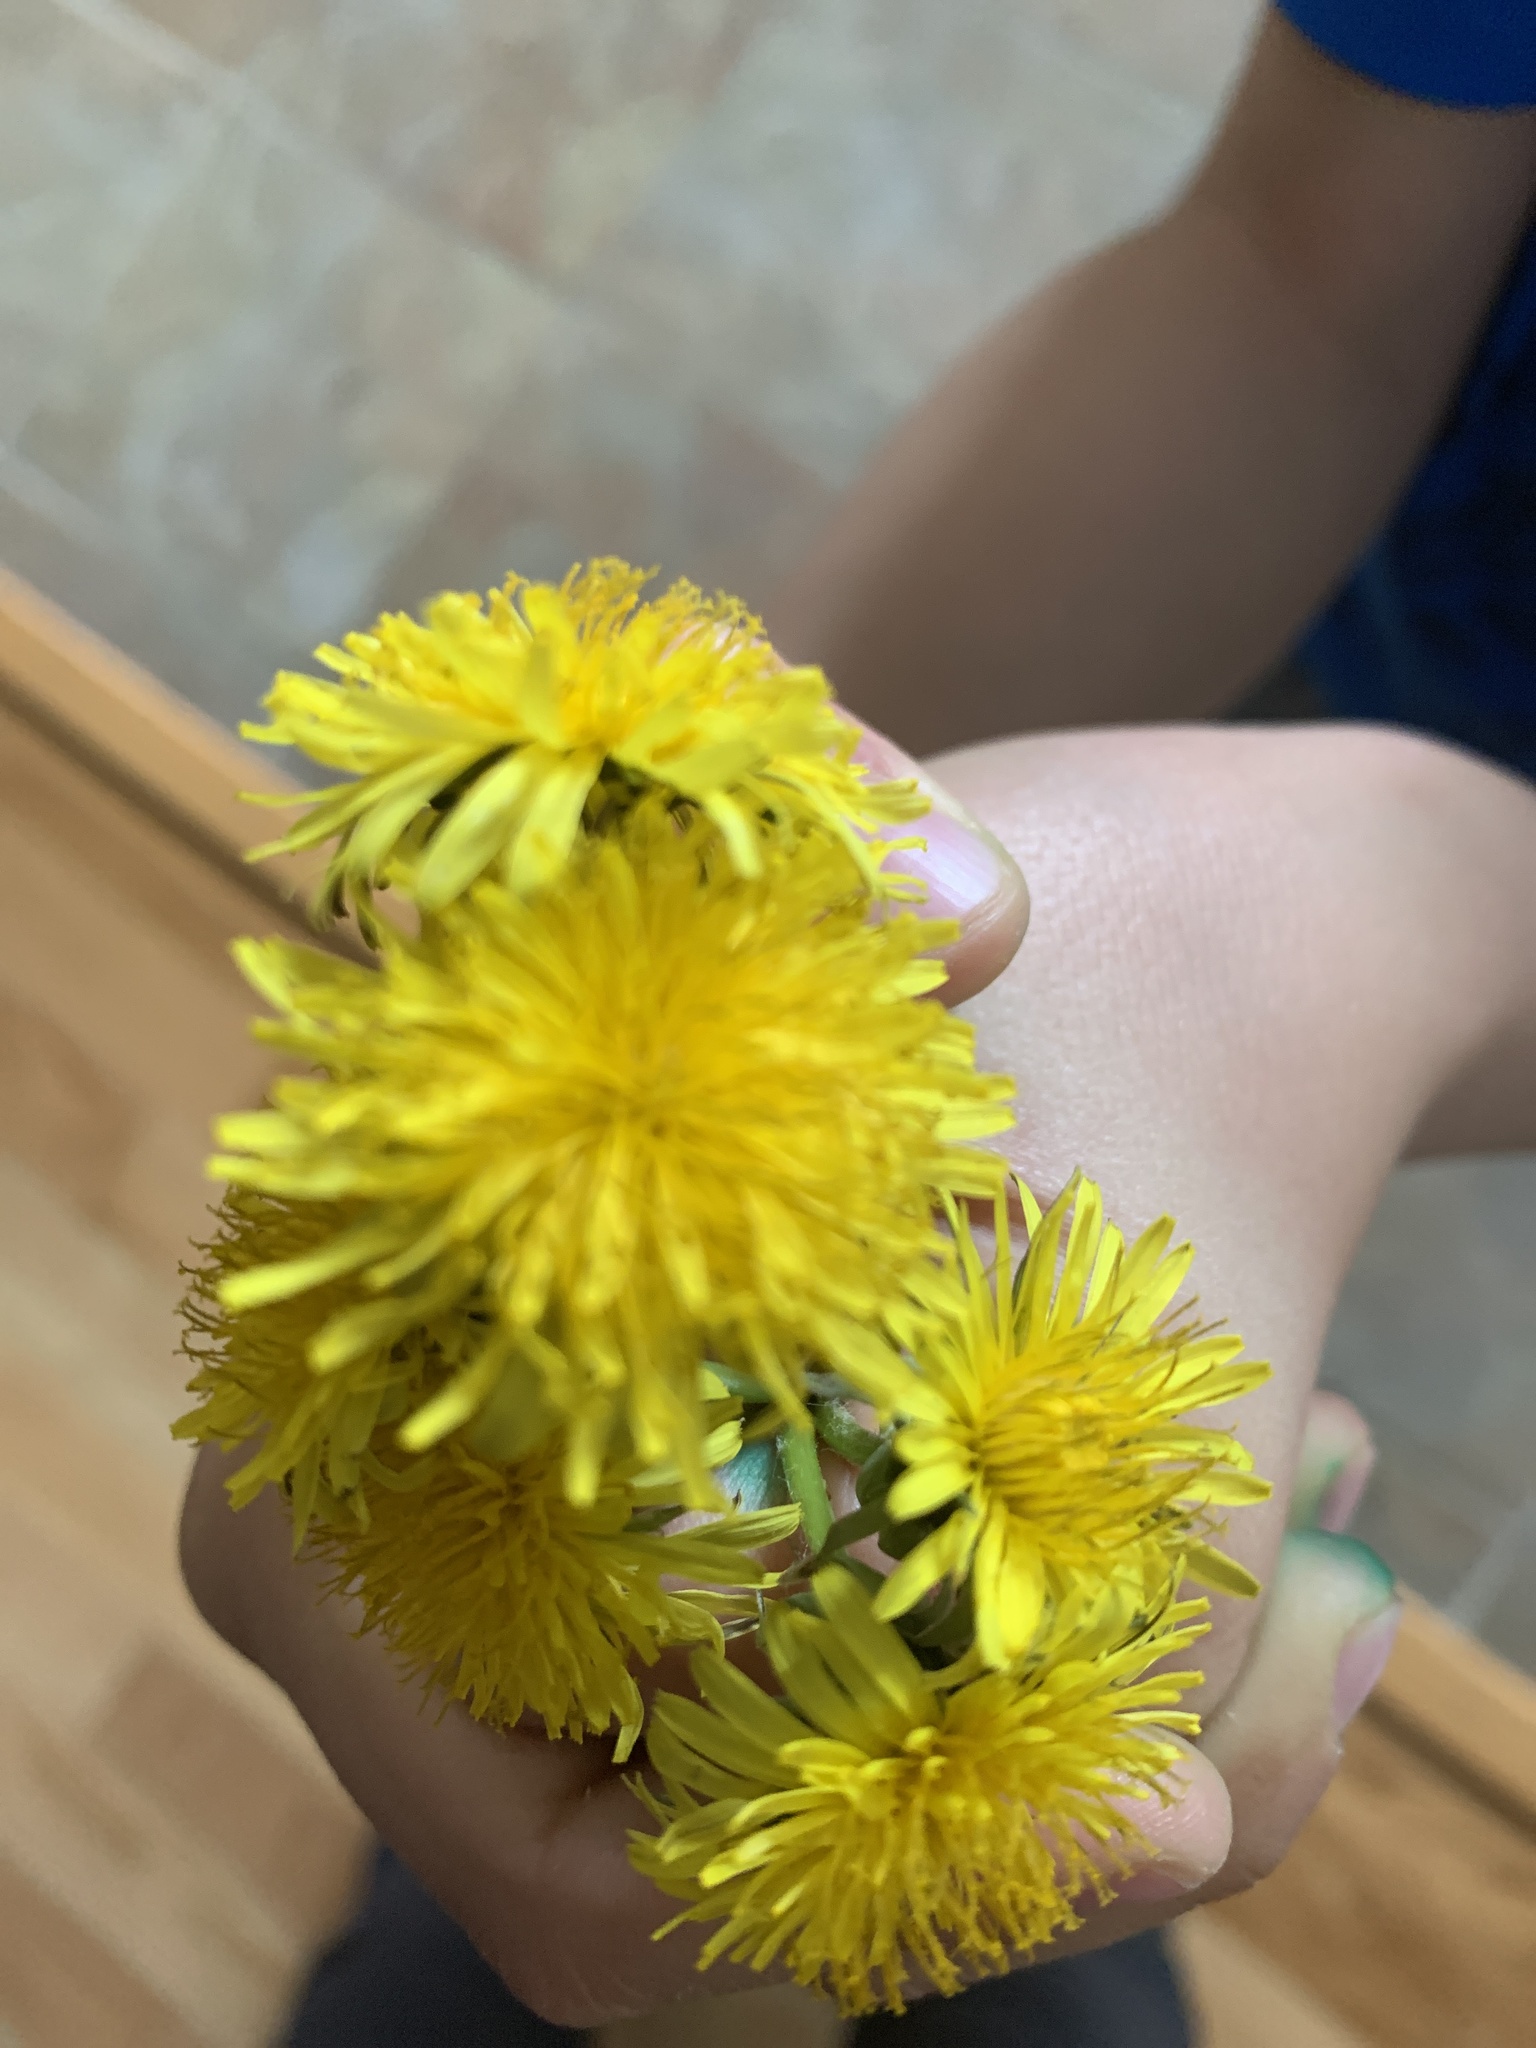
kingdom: Plantae
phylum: Tracheophyta
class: Magnoliopsida
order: Asterales
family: Asteraceae
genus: Taraxacum
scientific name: Taraxacum officinale
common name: Common dandelion
